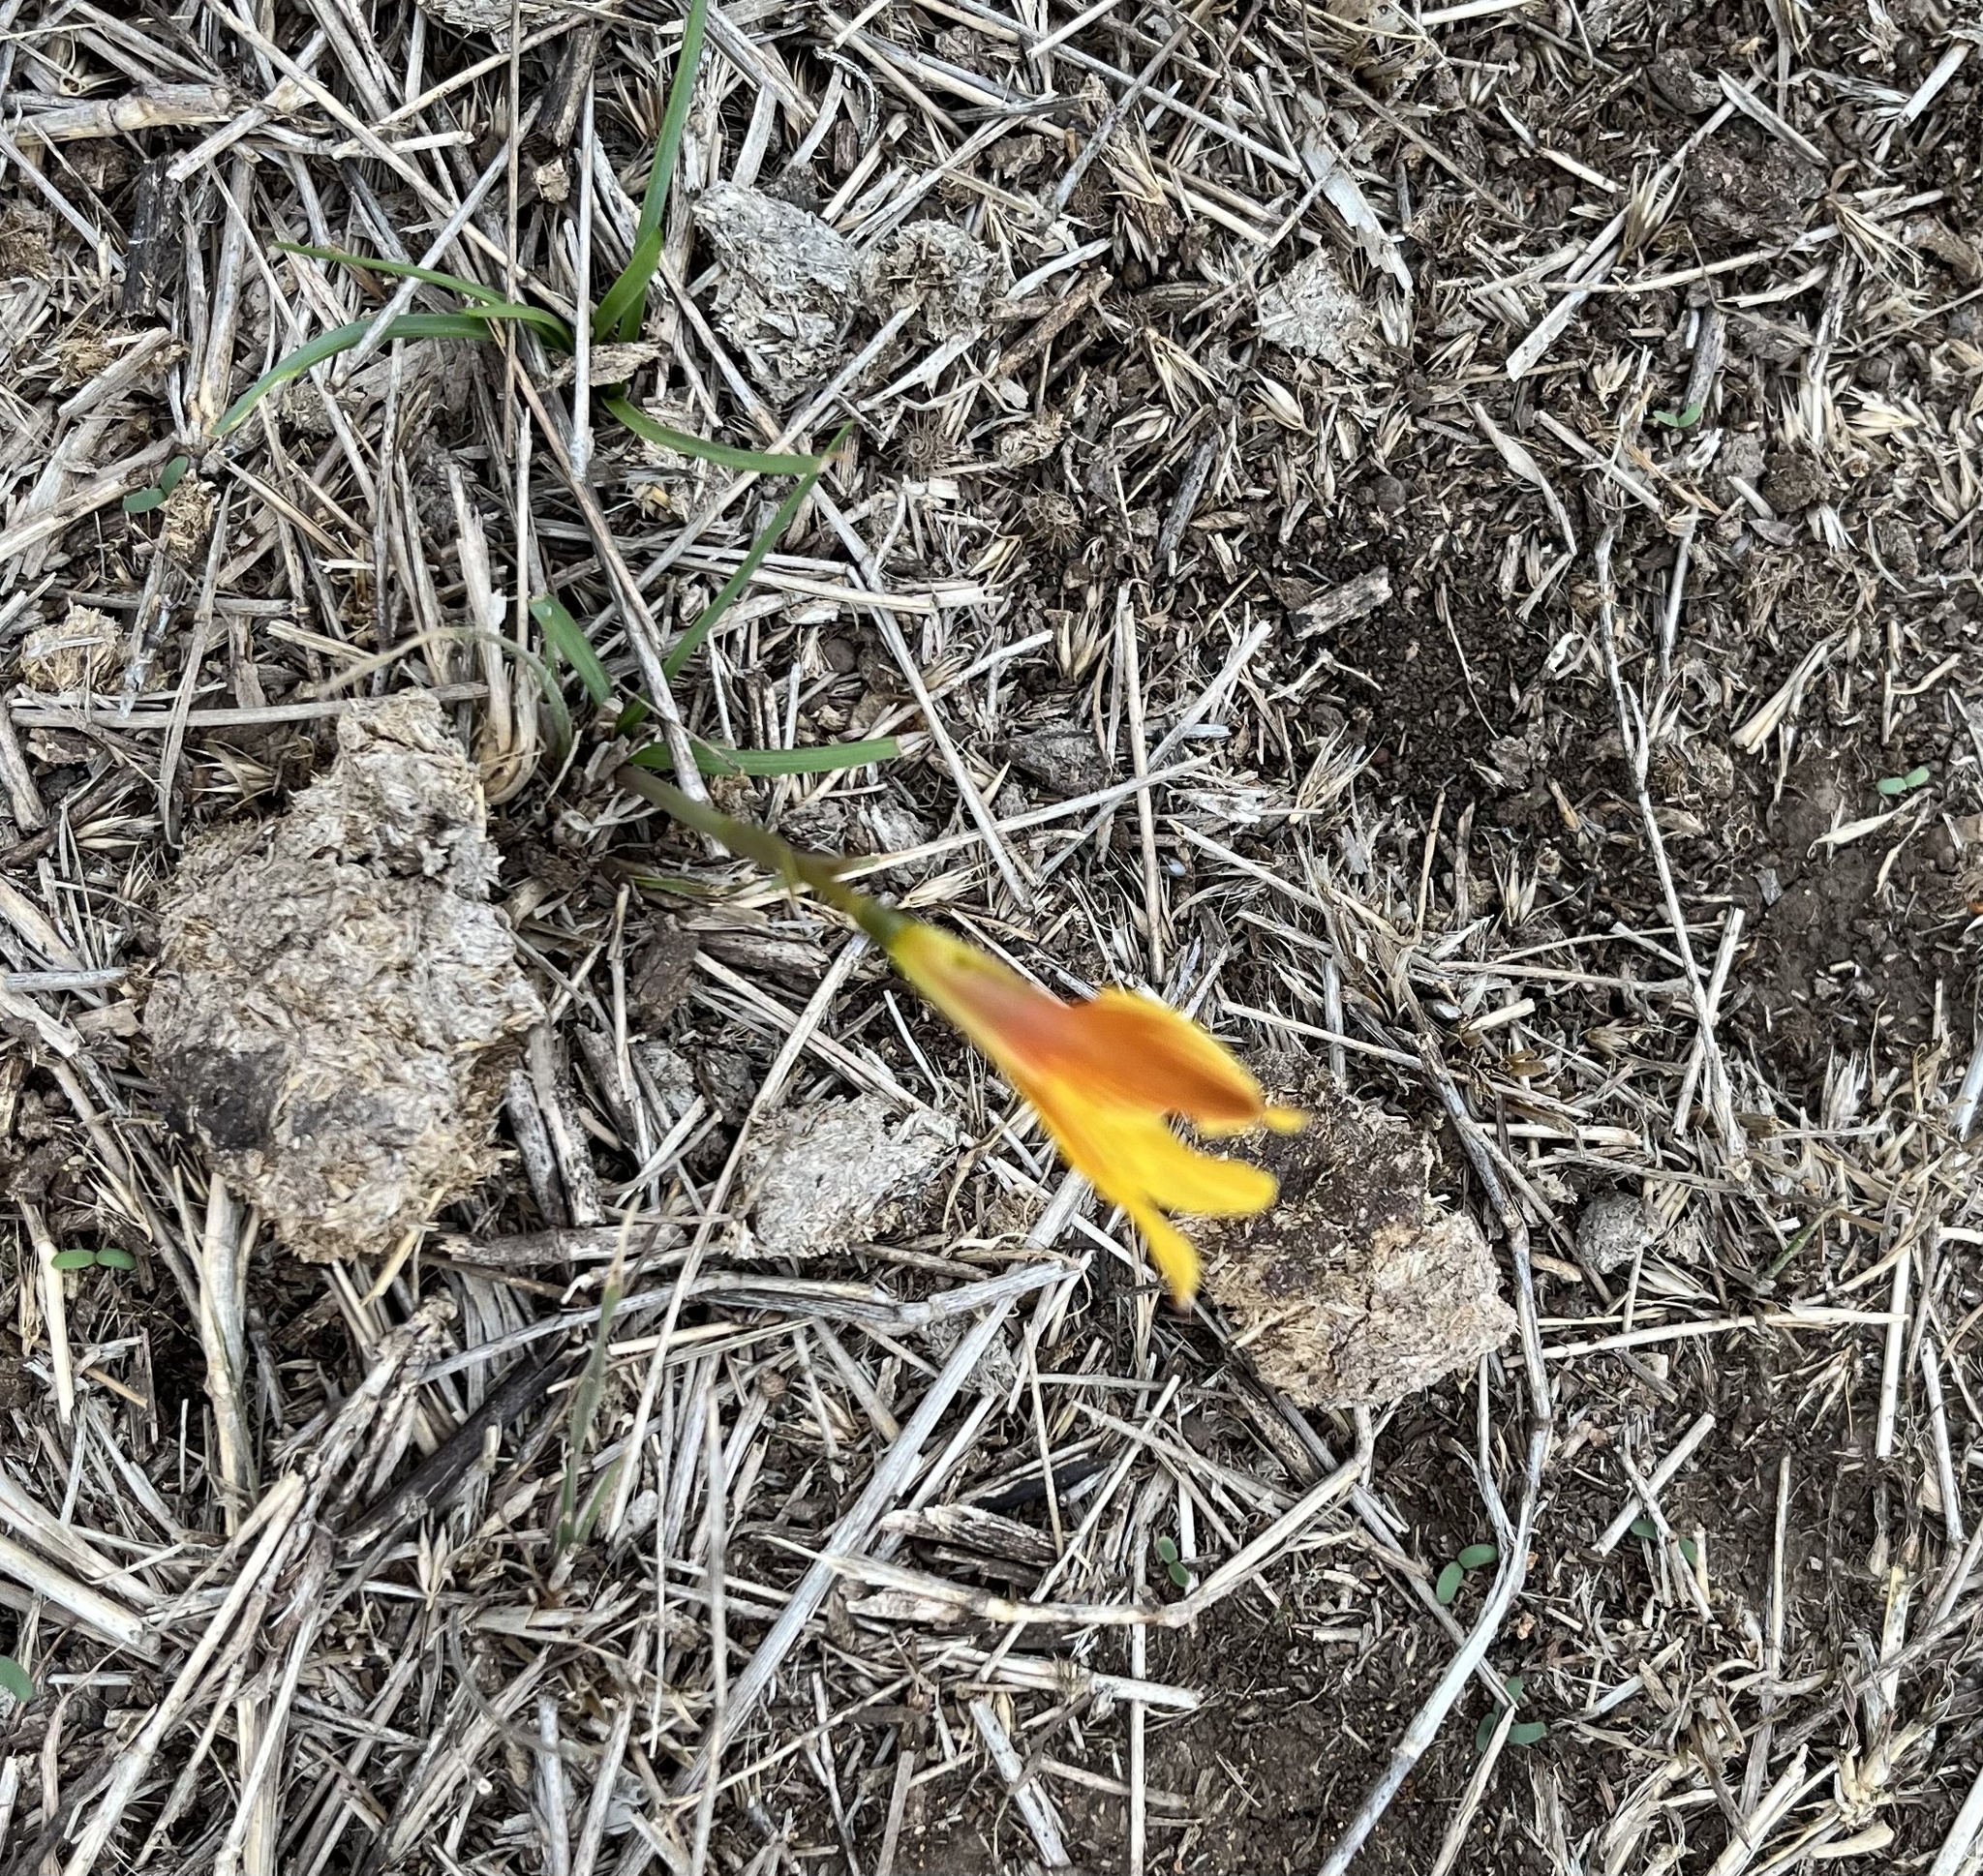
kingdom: Plantae
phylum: Tracheophyta
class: Liliopsida
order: Asparagales
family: Amaryllidaceae
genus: Zephyranthes
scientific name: Zephyranthes tubispatha
